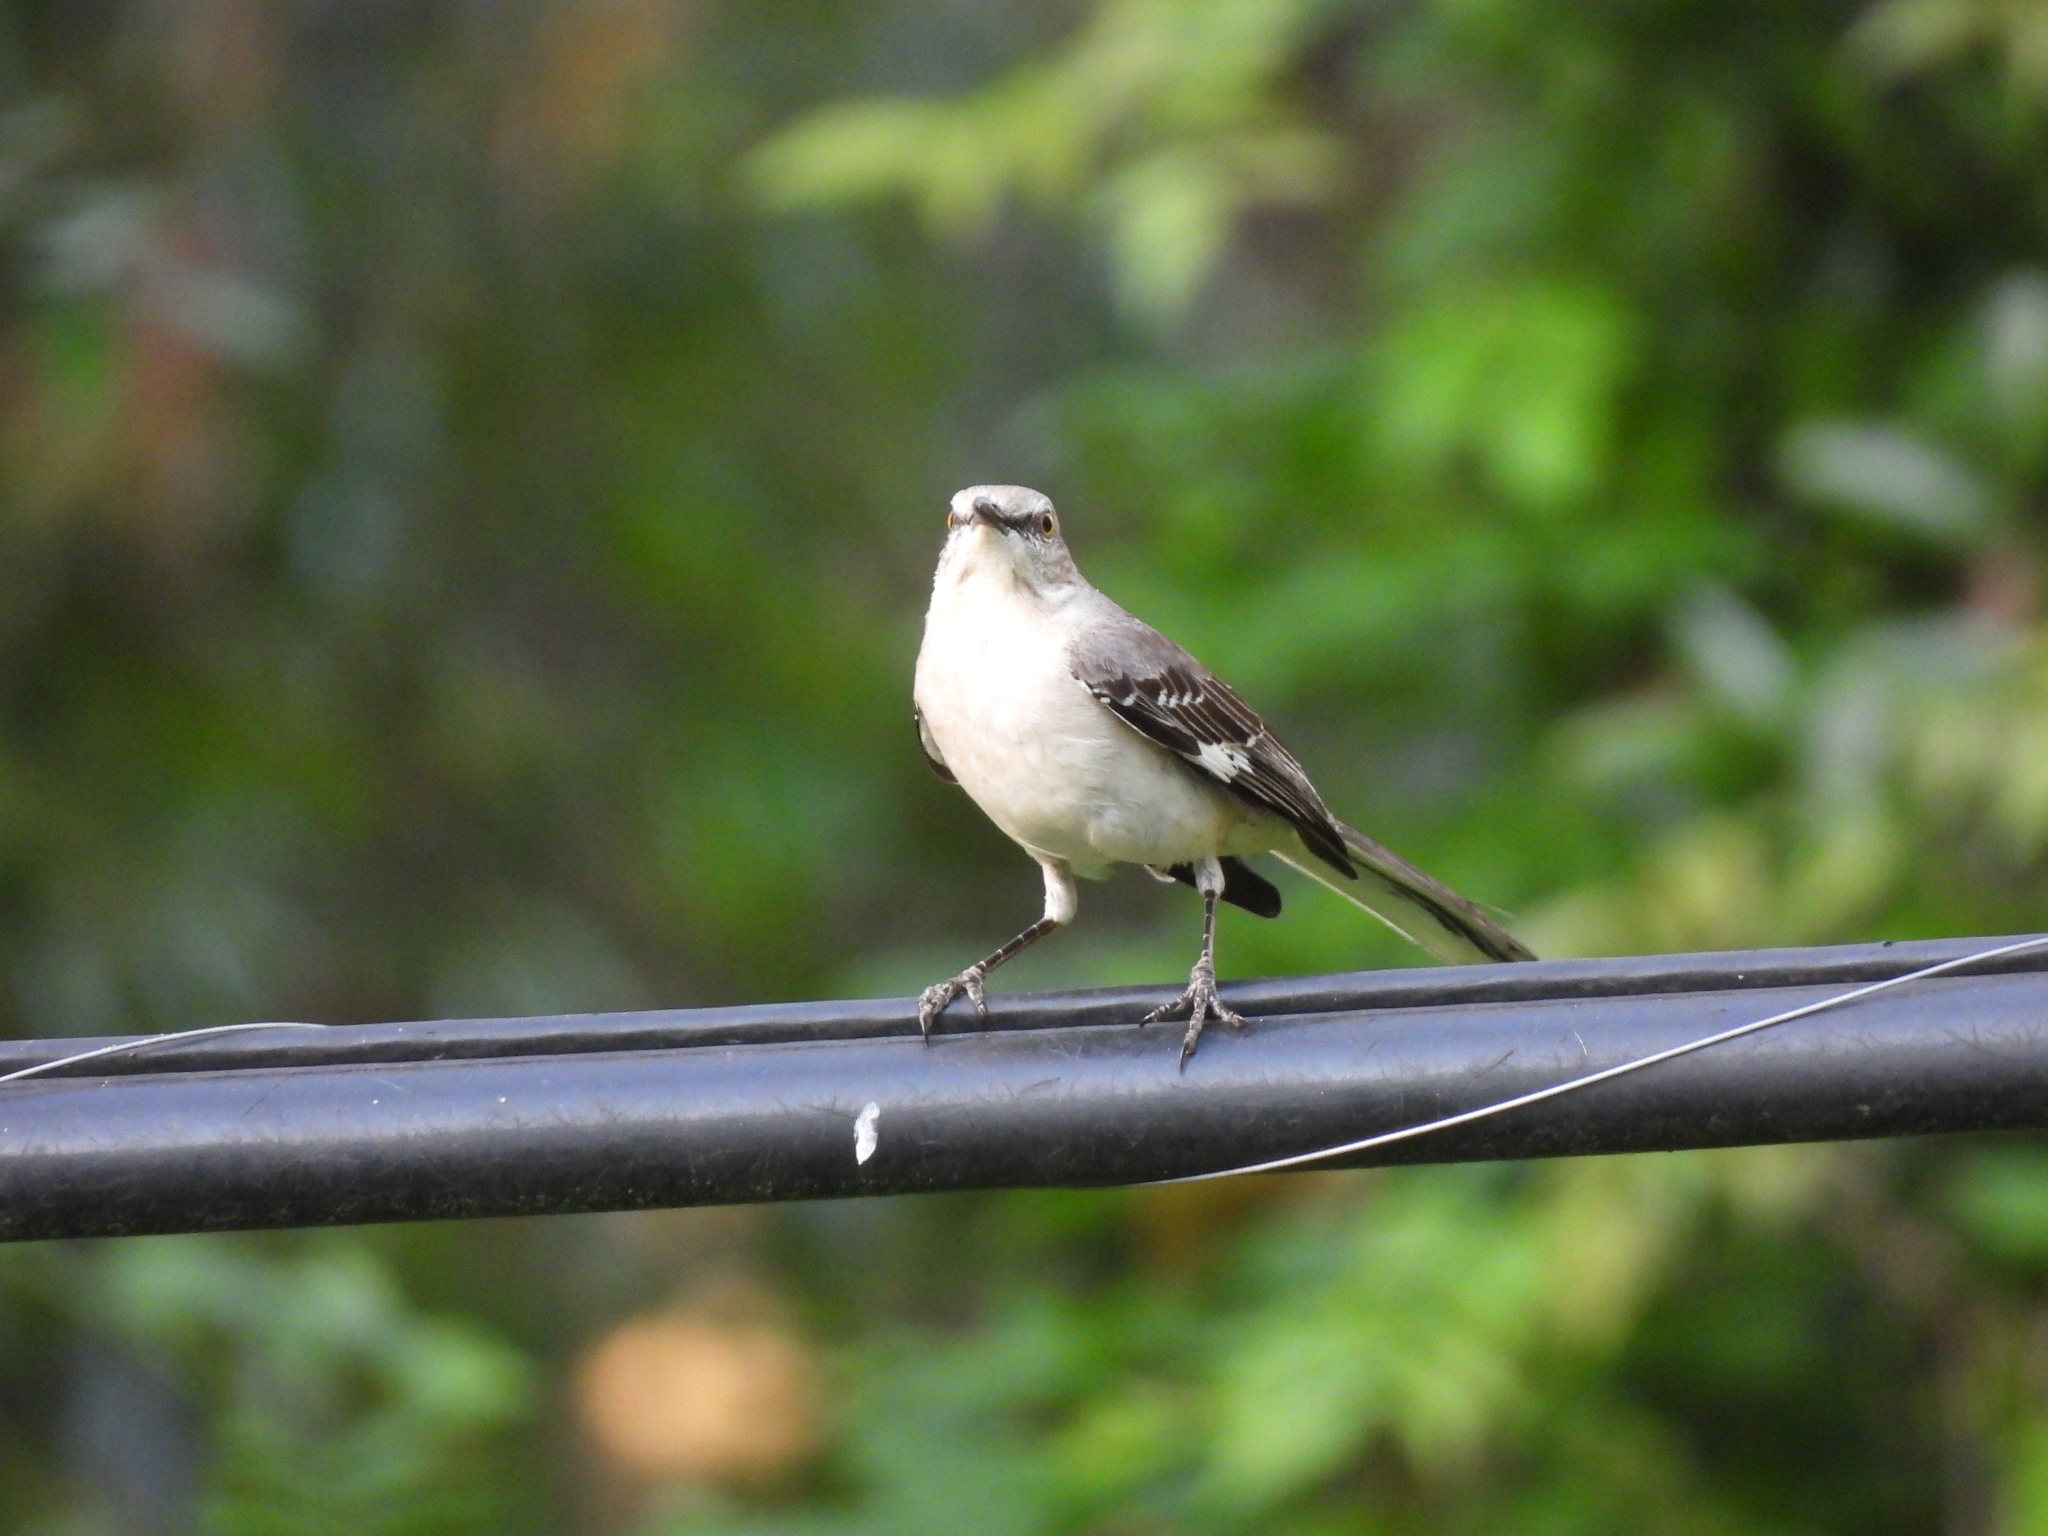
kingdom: Animalia
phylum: Chordata
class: Aves
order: Passeriformes
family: Mimidae
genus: Mimus
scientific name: Mimus polyglottos
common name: Northern mockingbird
